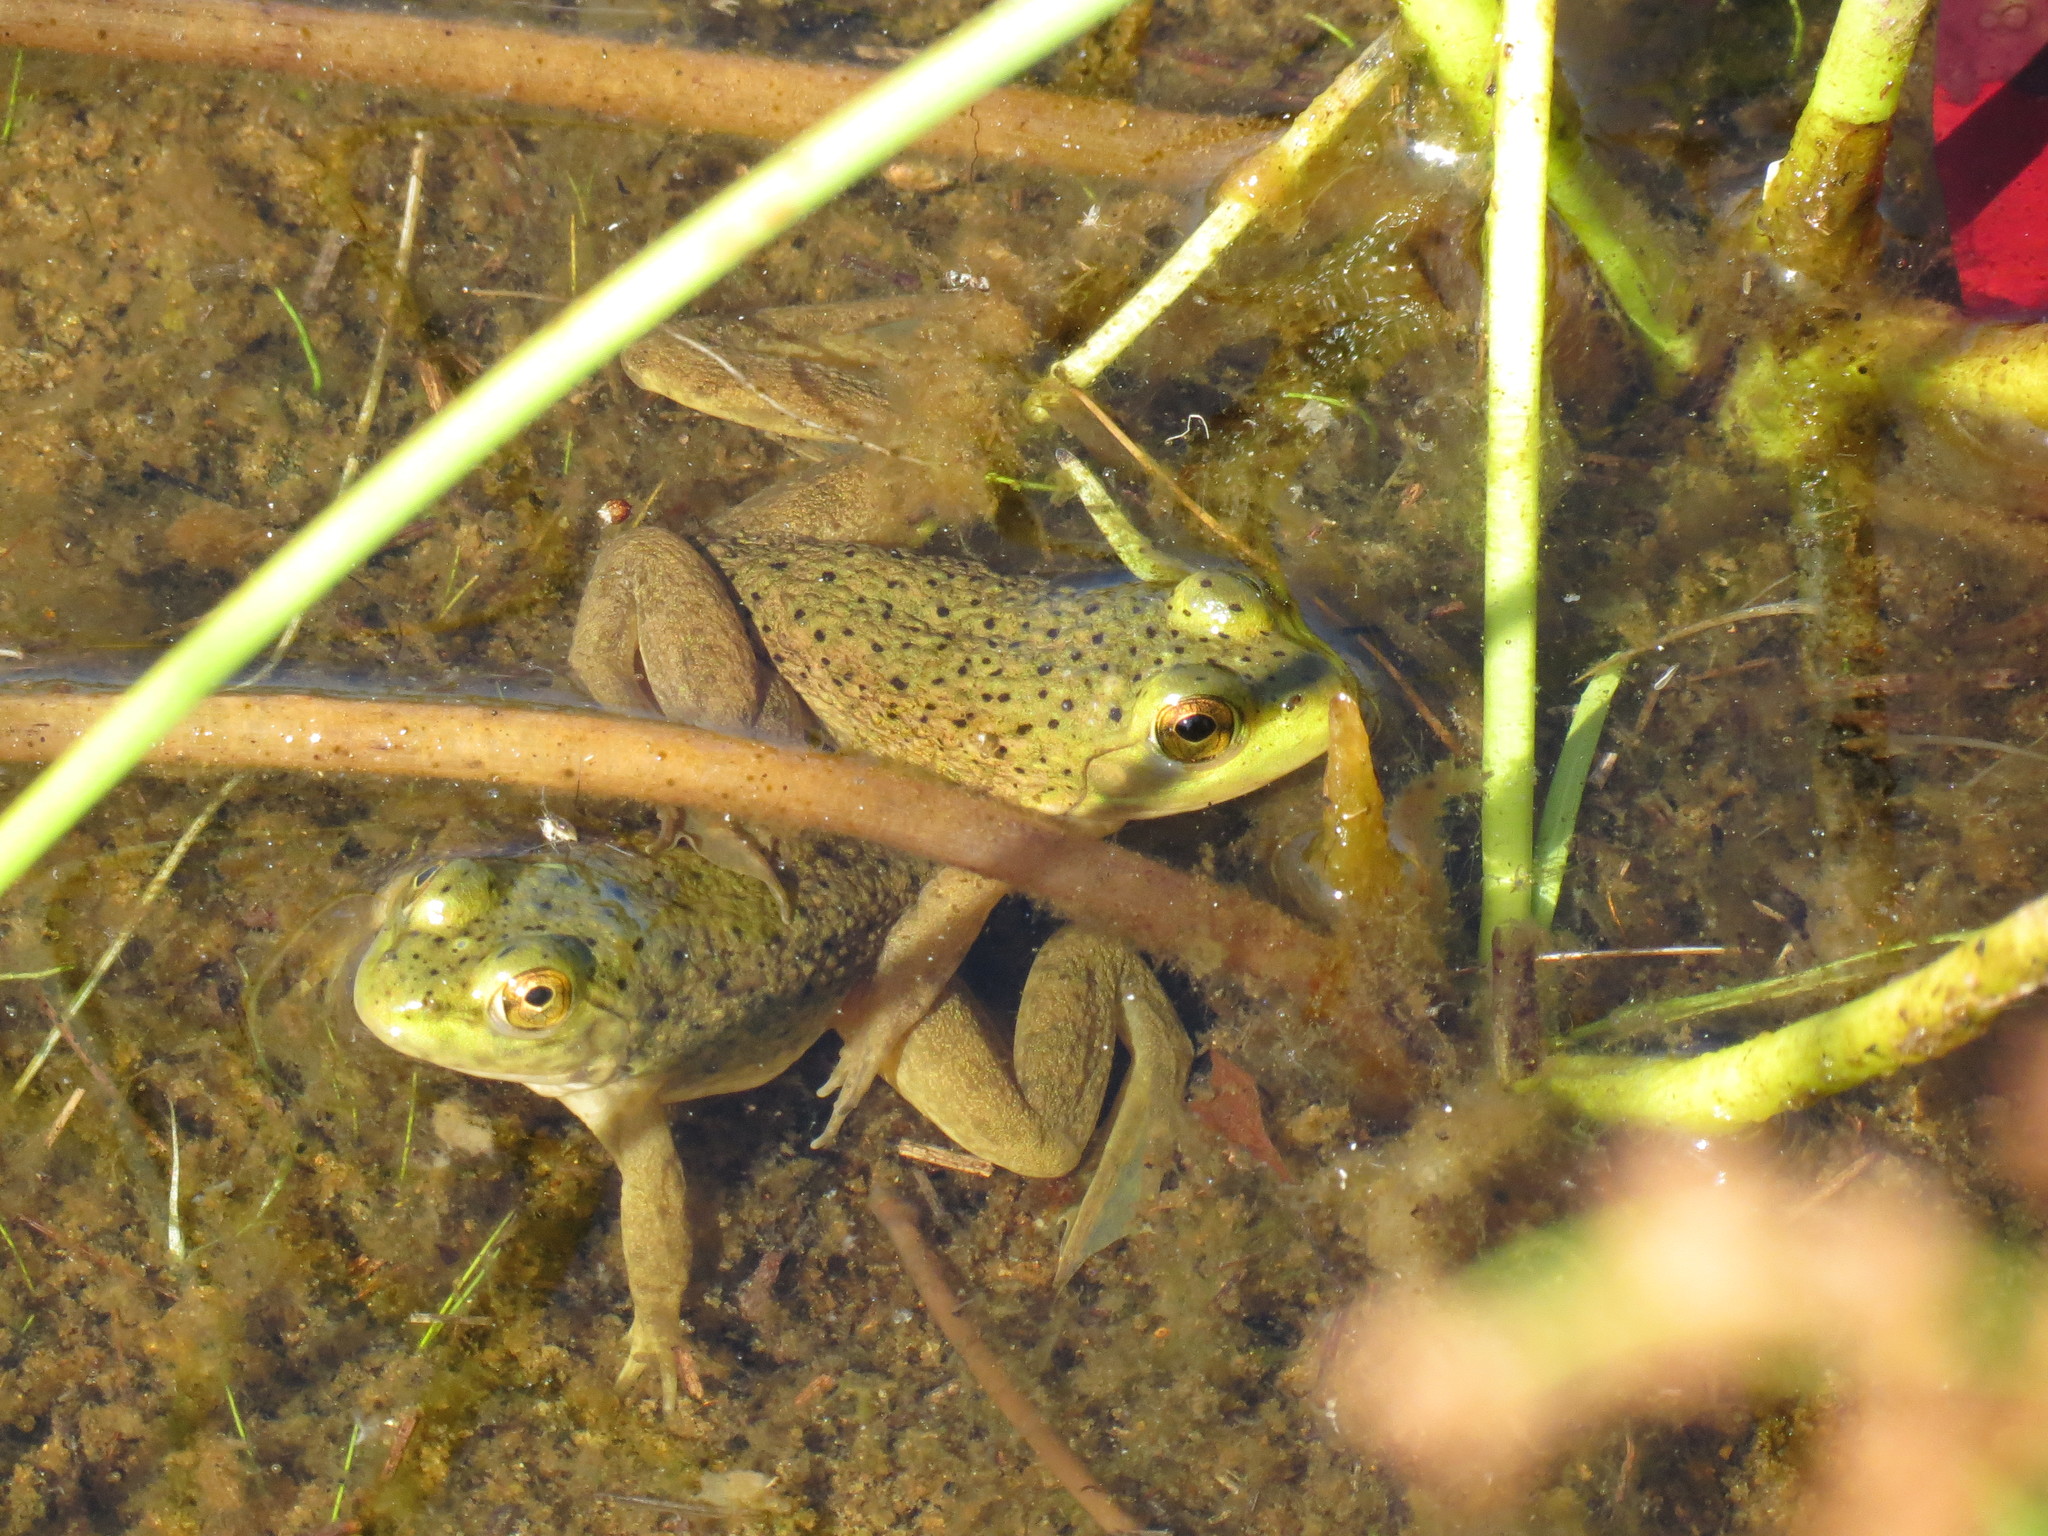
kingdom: Animalia
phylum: Chordata
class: Amphibia
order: Anura
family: Ranidae
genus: Lithobates
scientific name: Lithobates catesbeianus
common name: American bullfrog
